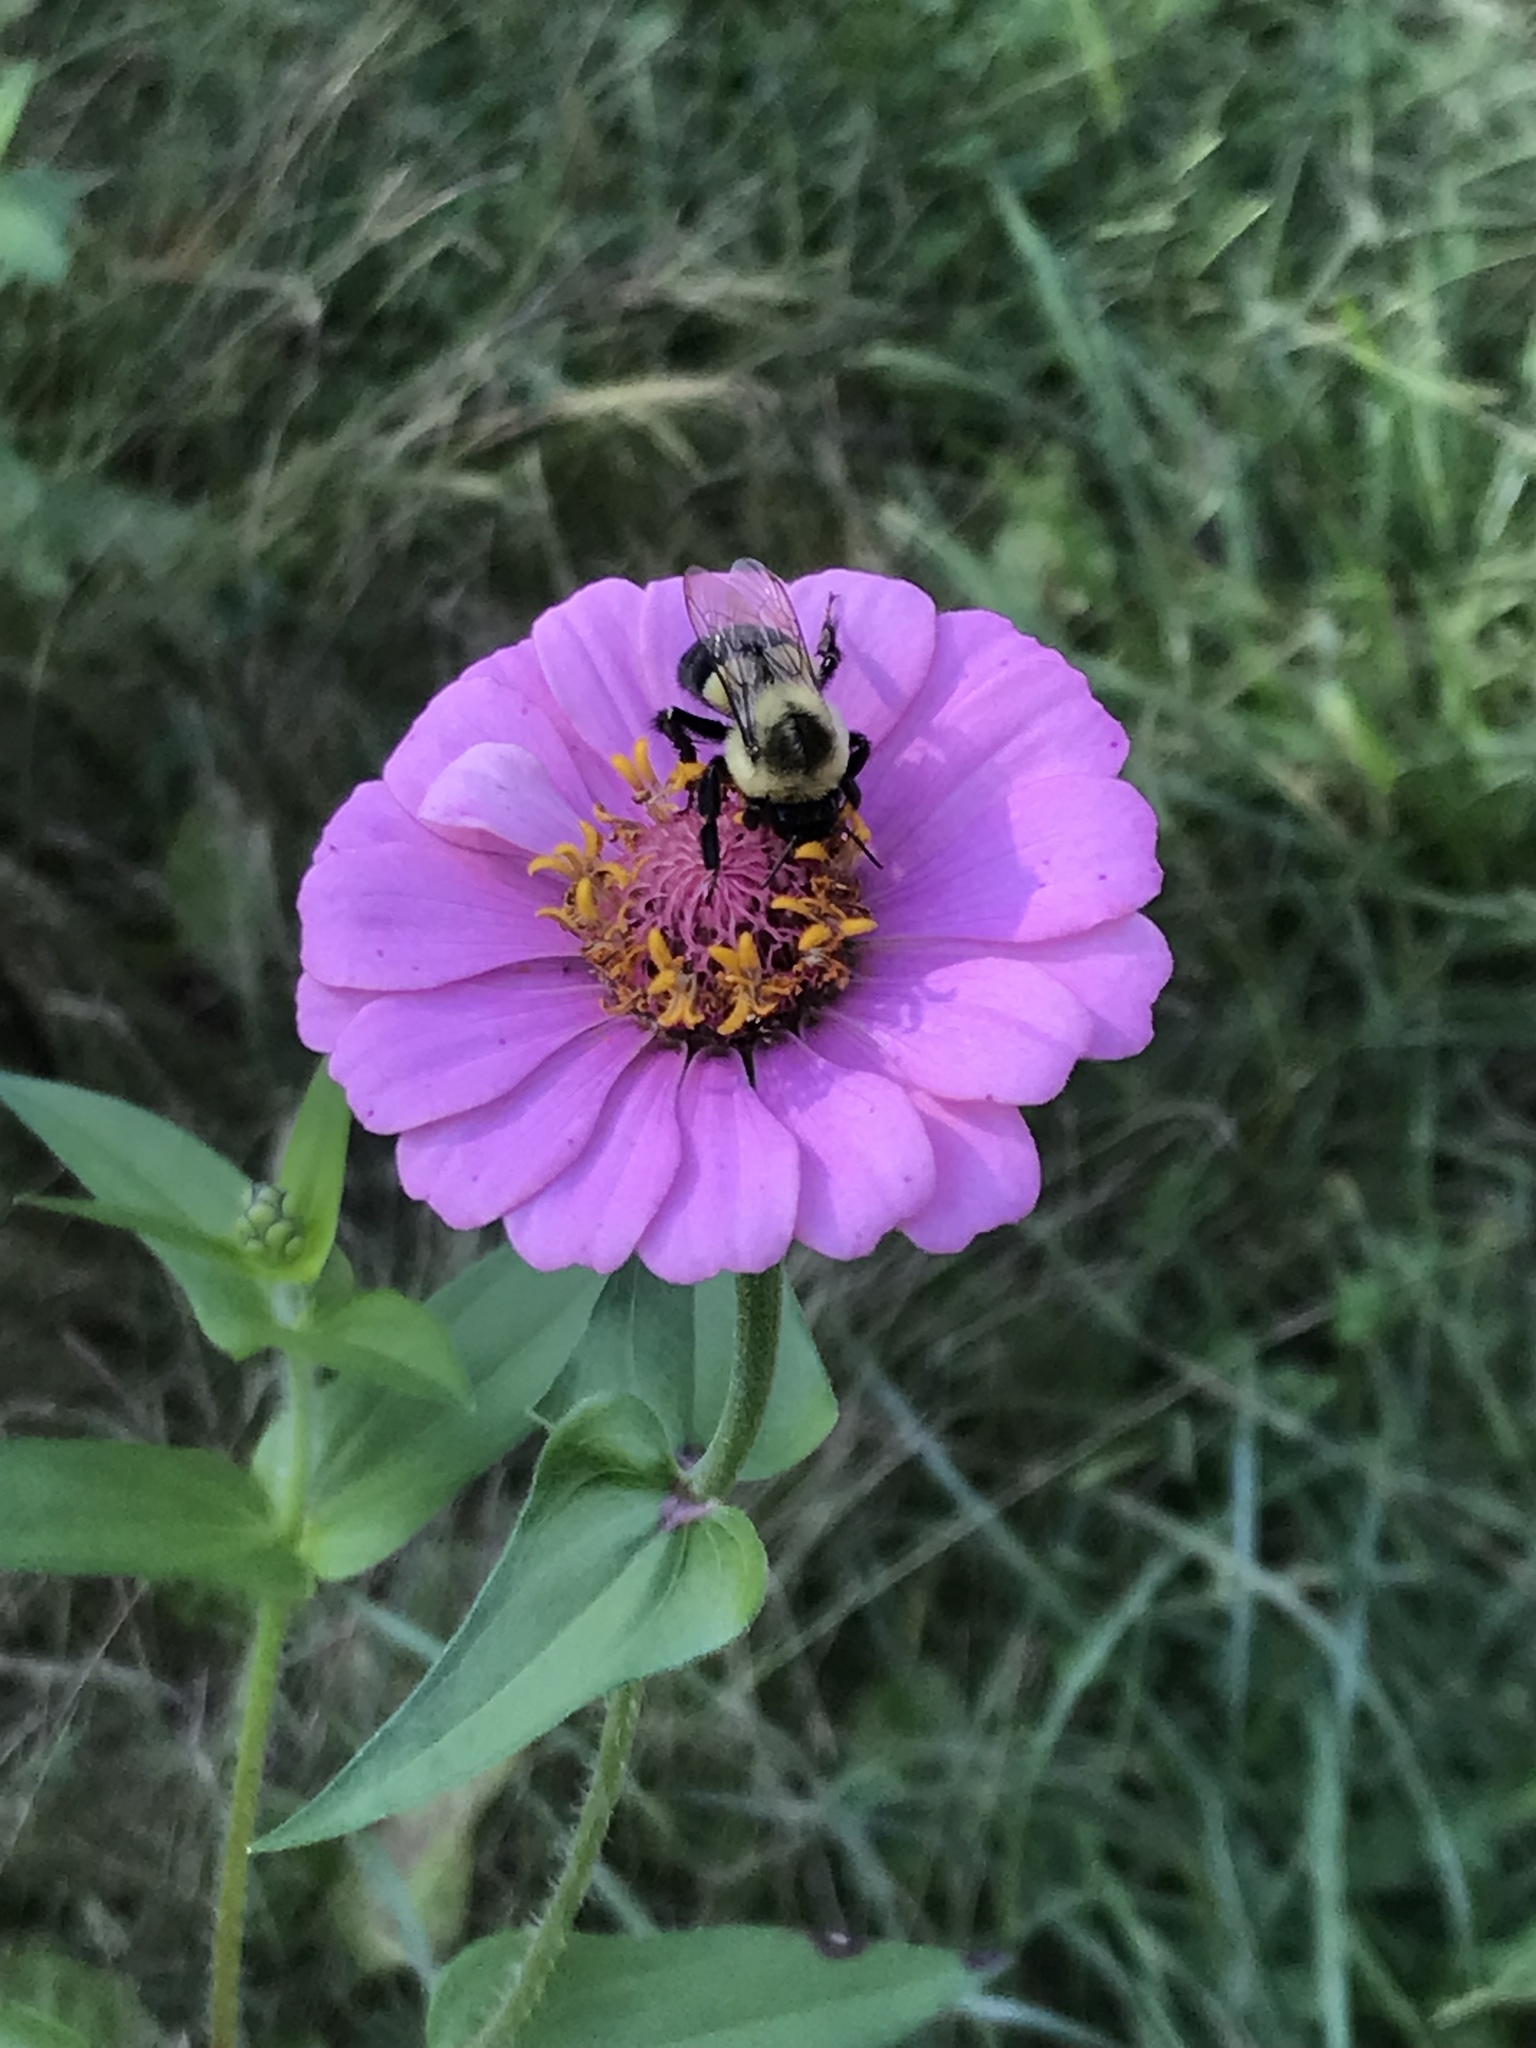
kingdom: Animalia
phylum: Arthropoda
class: Insecta
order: Hymenoptera
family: Apidae
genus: Bombus
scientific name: Bombus impatiens
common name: Common eastern bumble bee
